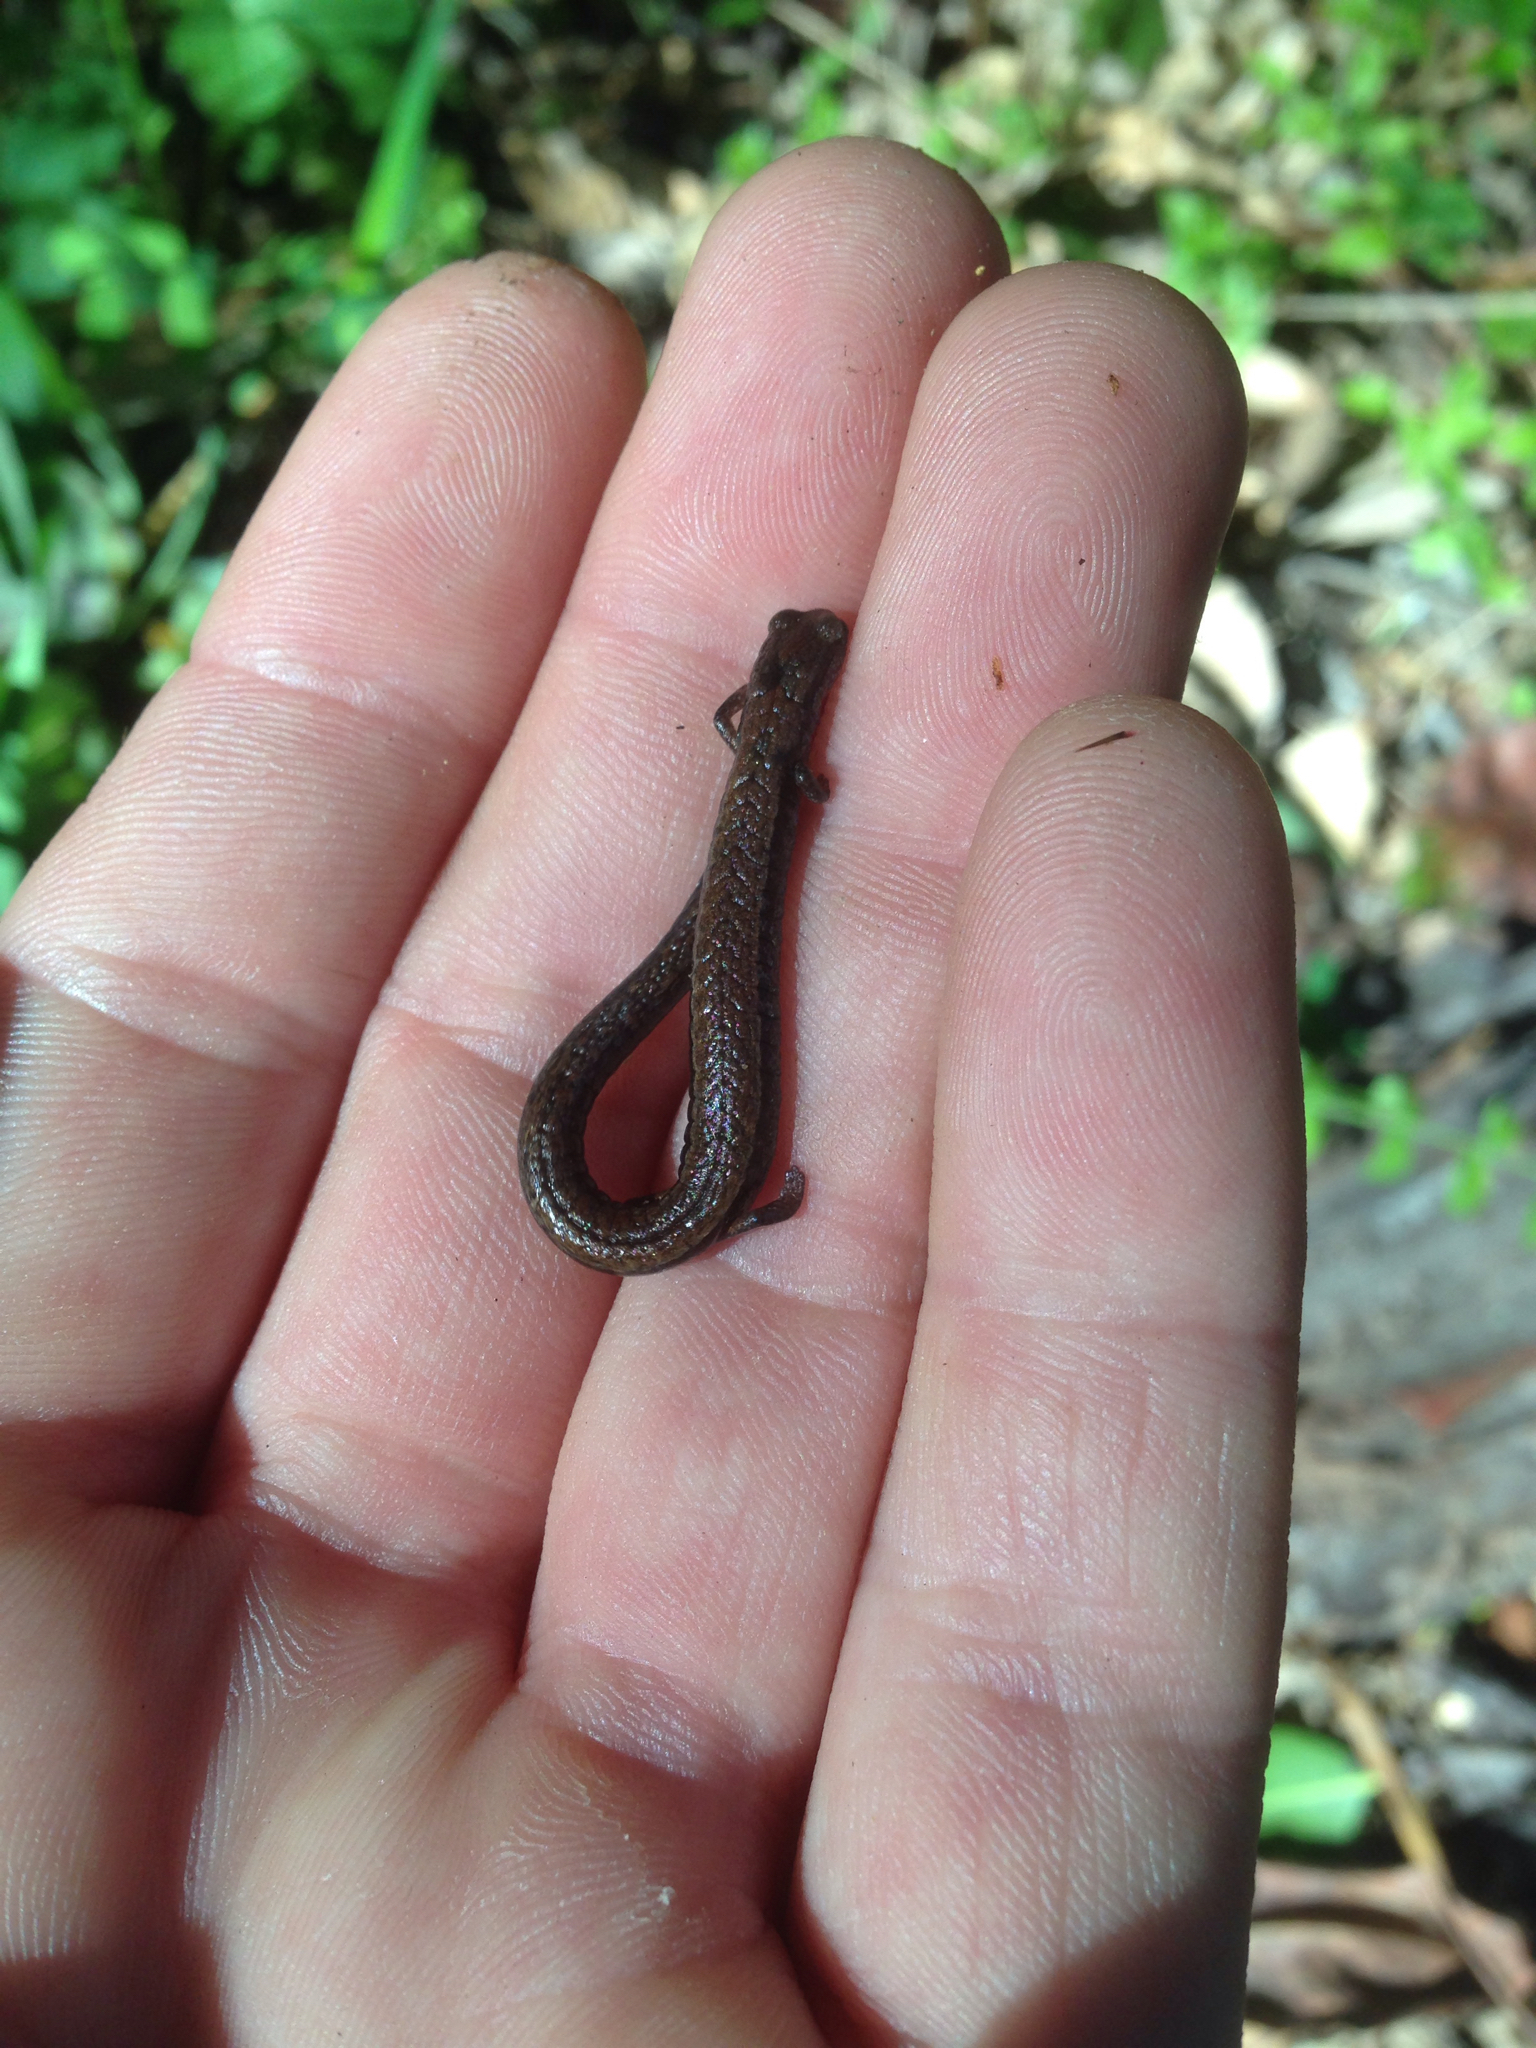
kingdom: Animalia
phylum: Chordata
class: Amphibia
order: Caudata
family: Plethodontidae
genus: Batrachoseps
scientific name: Batrachoseps attenuatus
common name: California slender salamander
